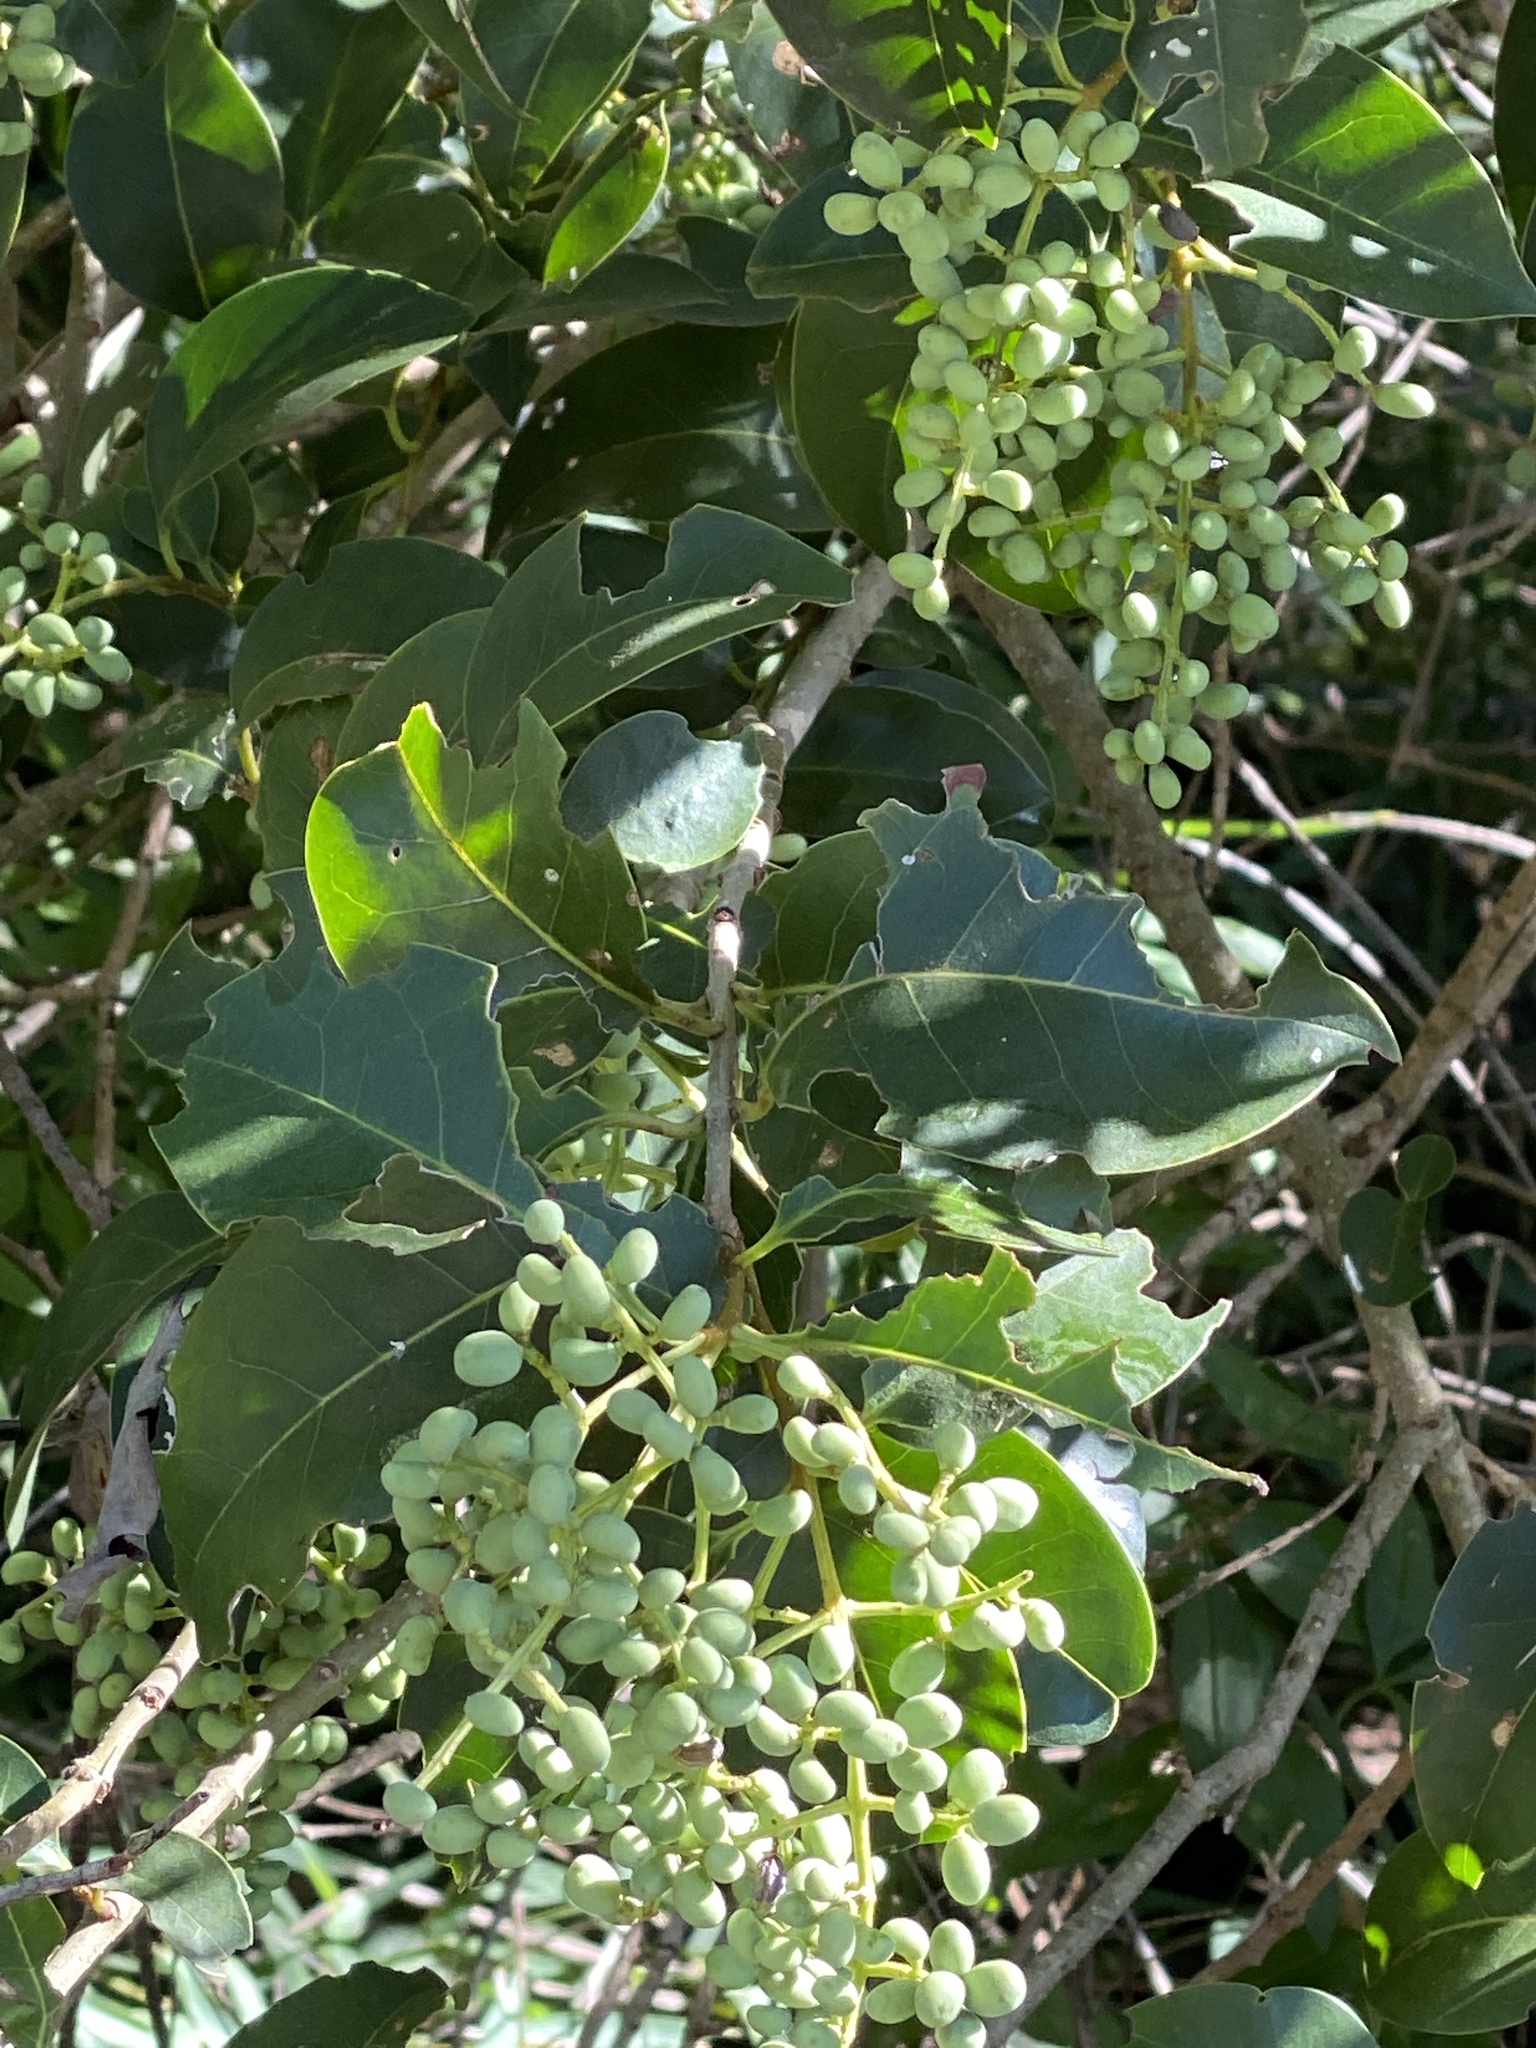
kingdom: Plantae
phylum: Tracheophyta
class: Magnoliopsida
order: Lamiales
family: Oleaceae
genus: Ligustrum
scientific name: Ligustrum lucidum
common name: Glossy privet
